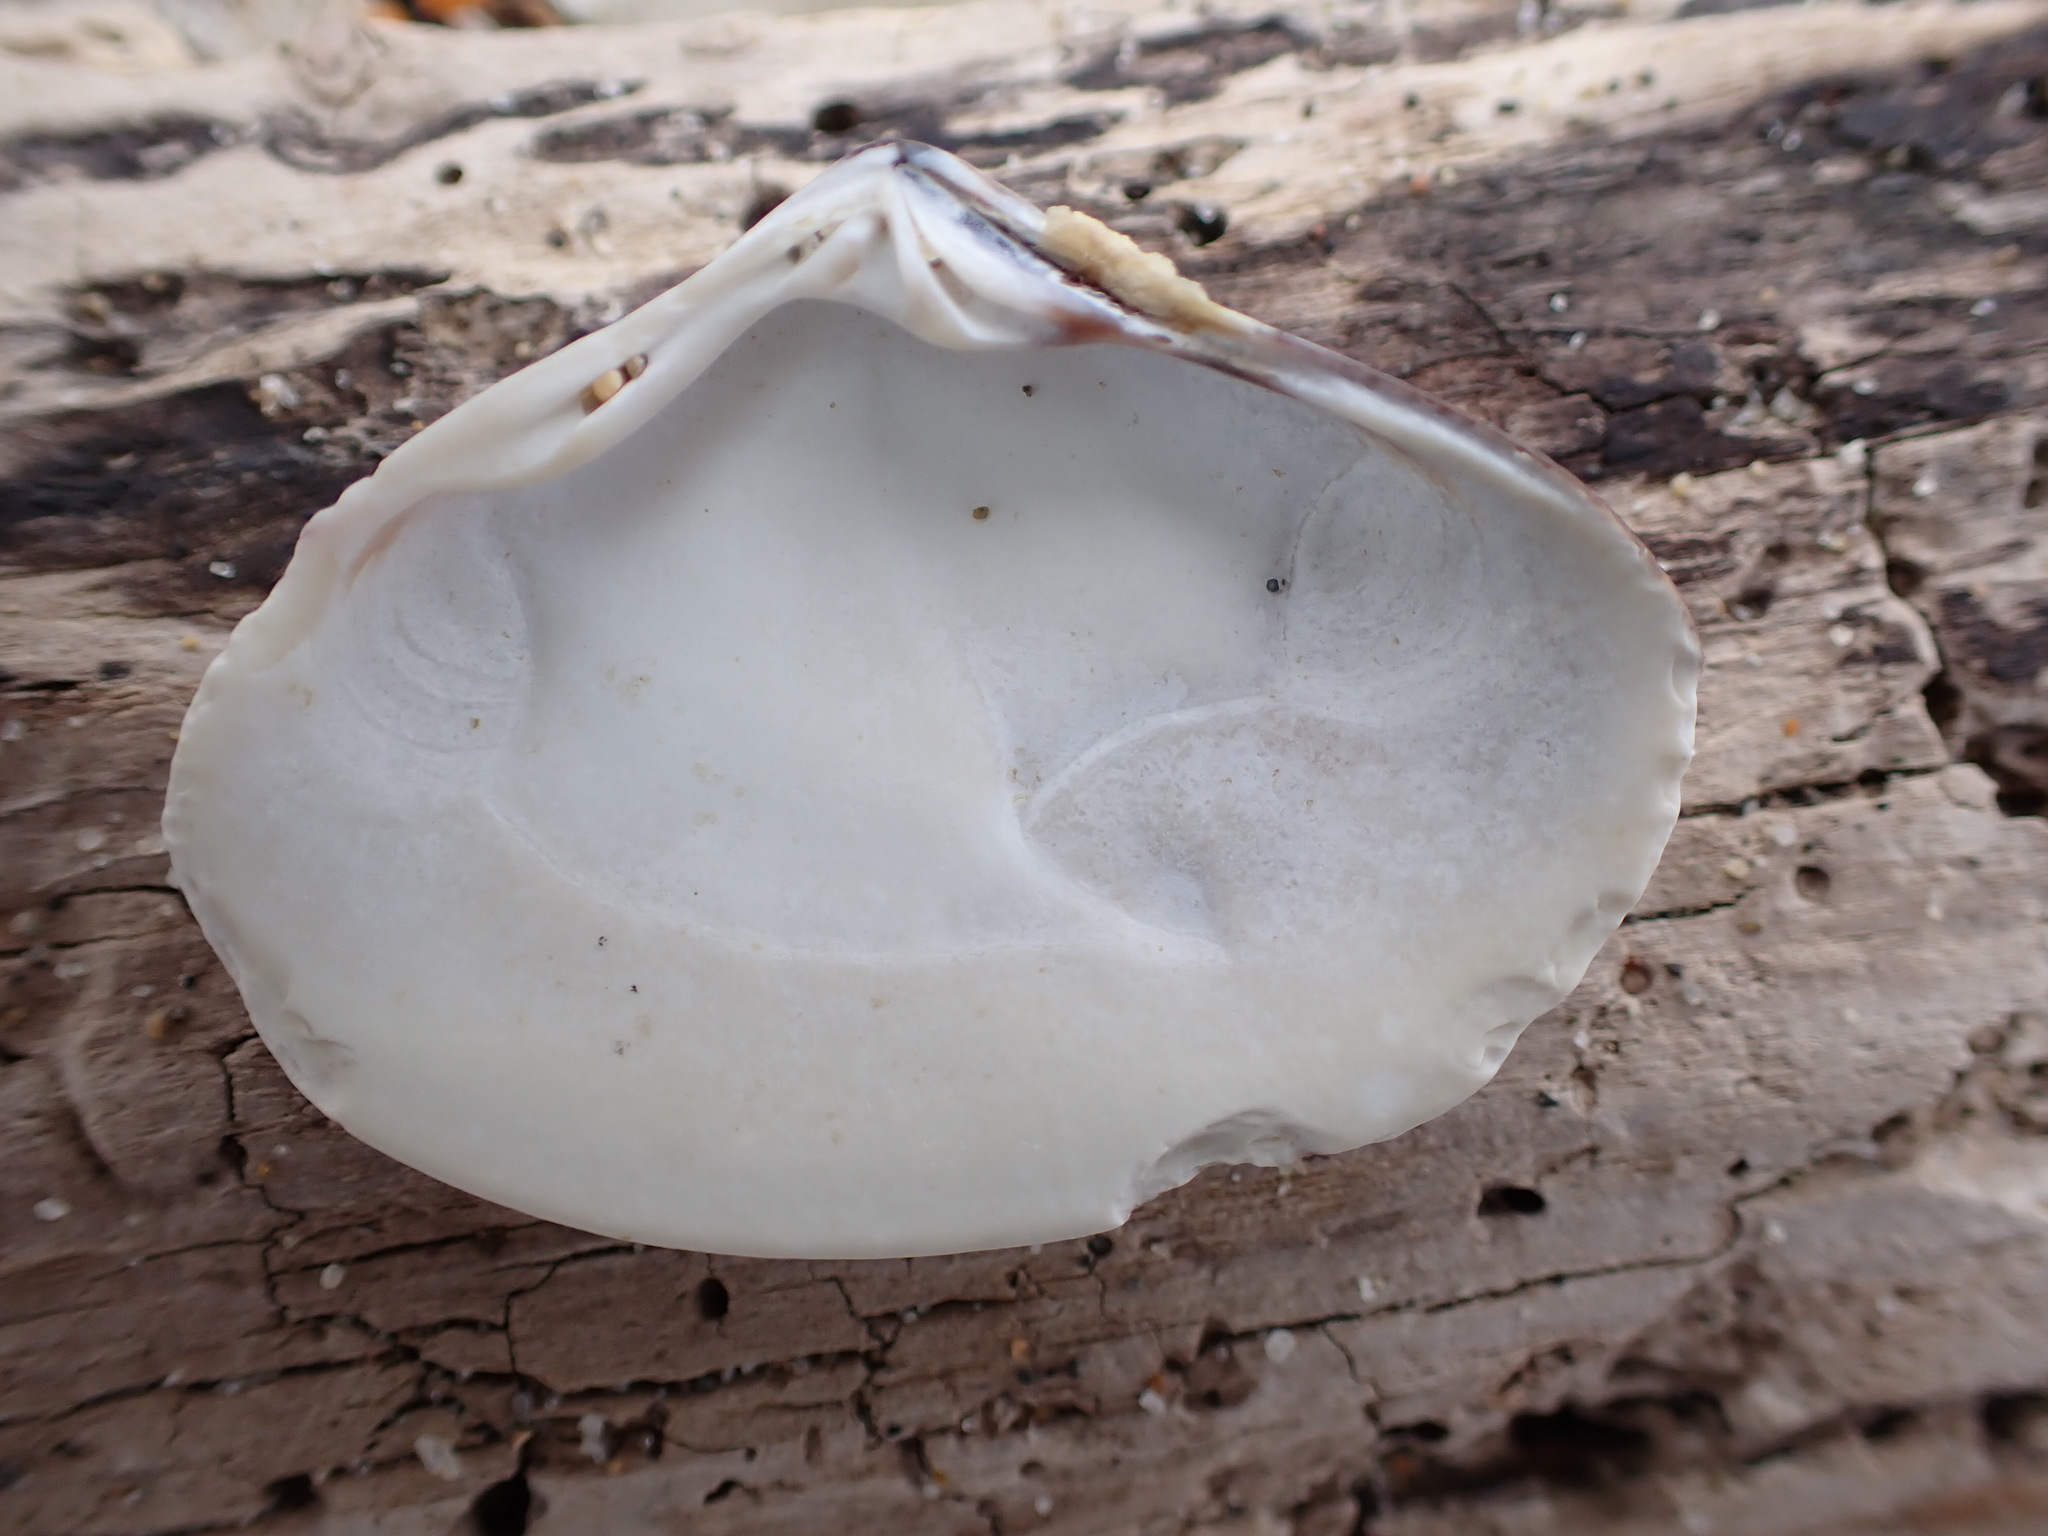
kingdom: Animalia
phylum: Mollusca
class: Bivalvia
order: Venerida
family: Veneridae
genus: Tivela
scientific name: Tivela stultorum
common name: Pismo clam
